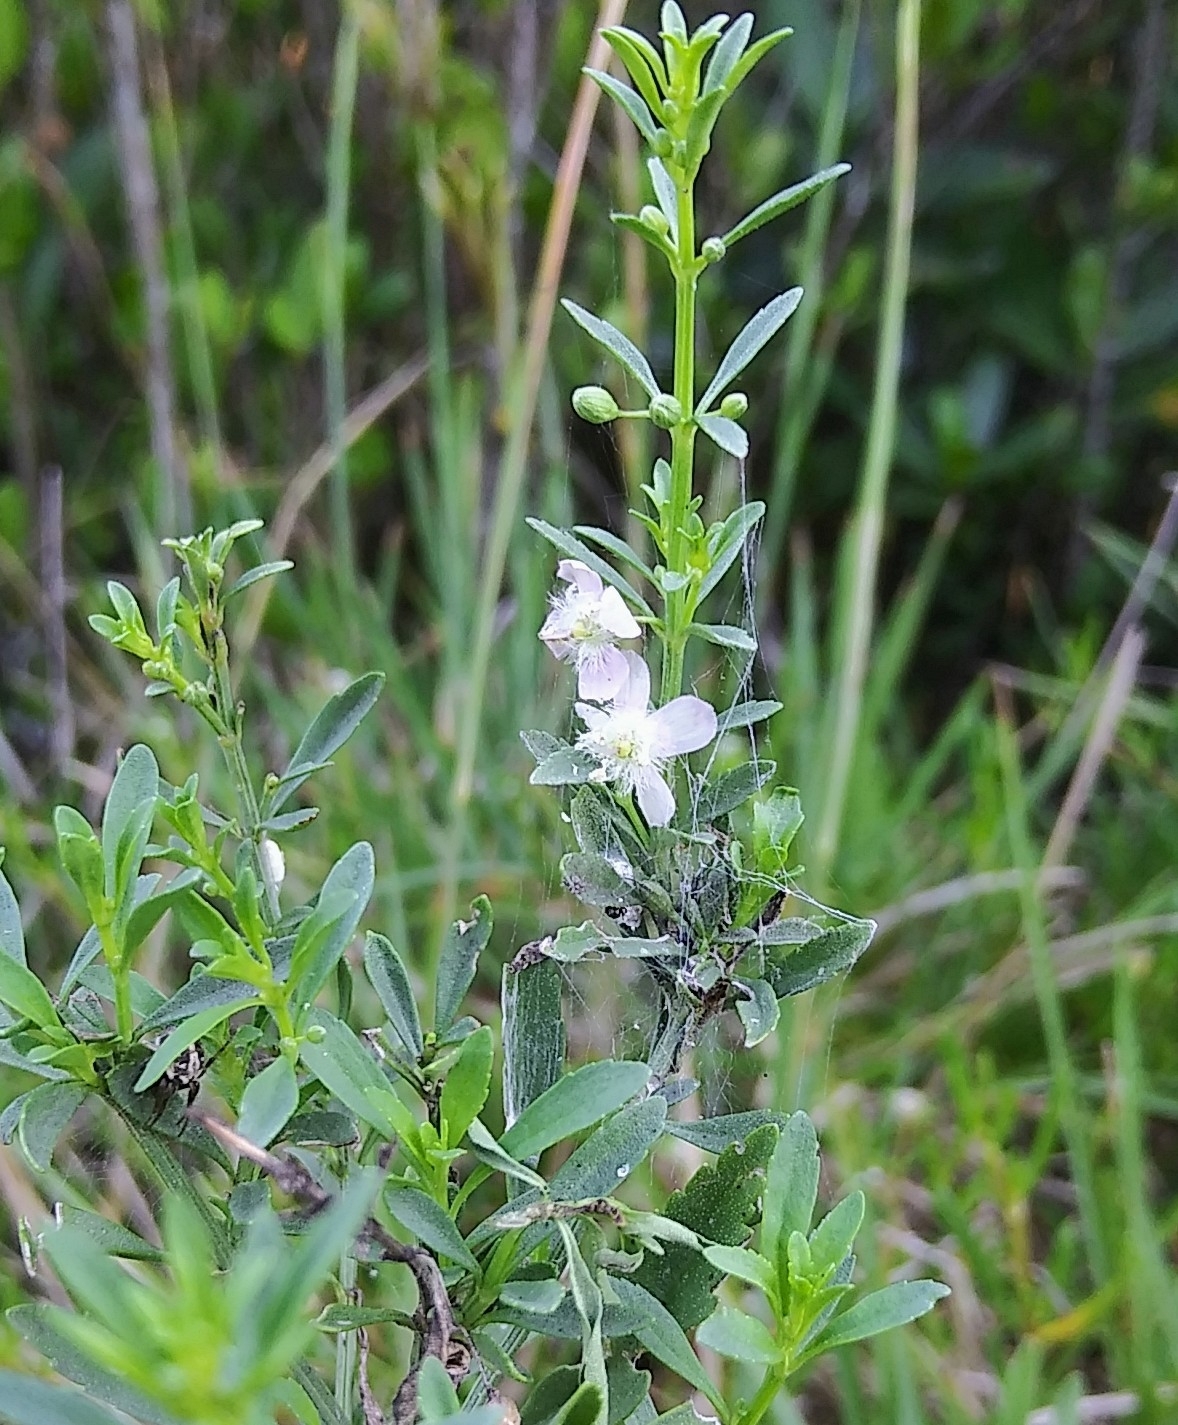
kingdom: Plantae
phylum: Tracheophyta
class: Magnoliopsida
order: Lamiales
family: Plantaginaceae
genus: Scoparia
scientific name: Scoparia dulcis
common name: Scoparia-weed
